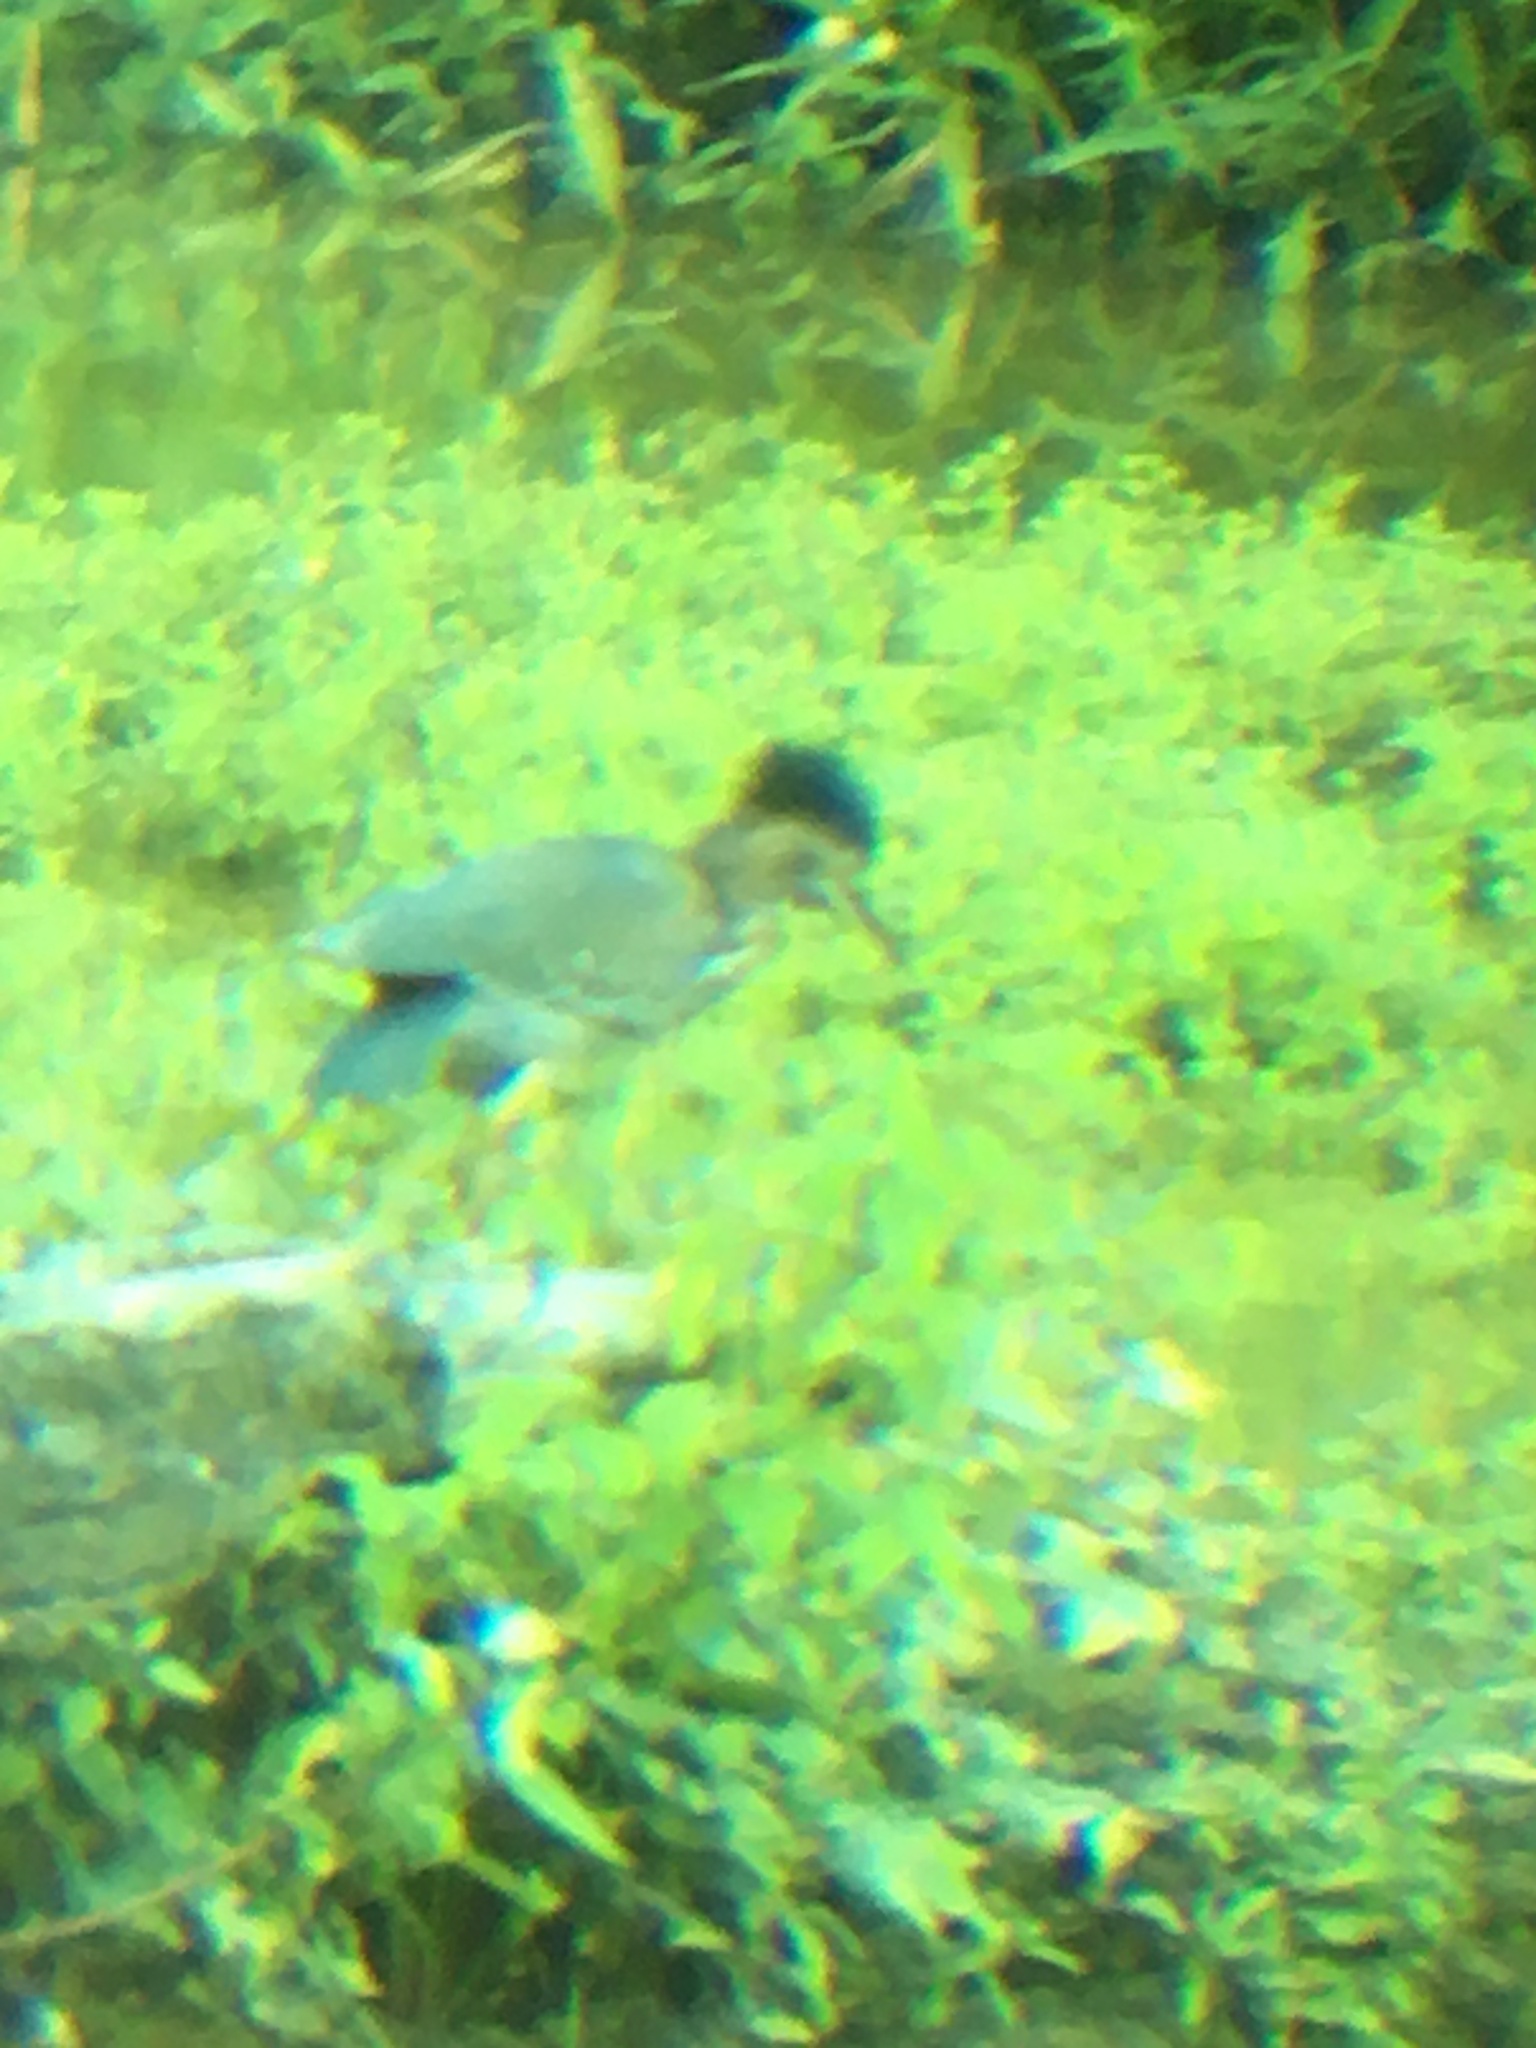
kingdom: Animalia
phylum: Chordata
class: Aves
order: Pelecaniformes
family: Ardeidae
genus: Butorides
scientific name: Butorides virescens
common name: Green heron
